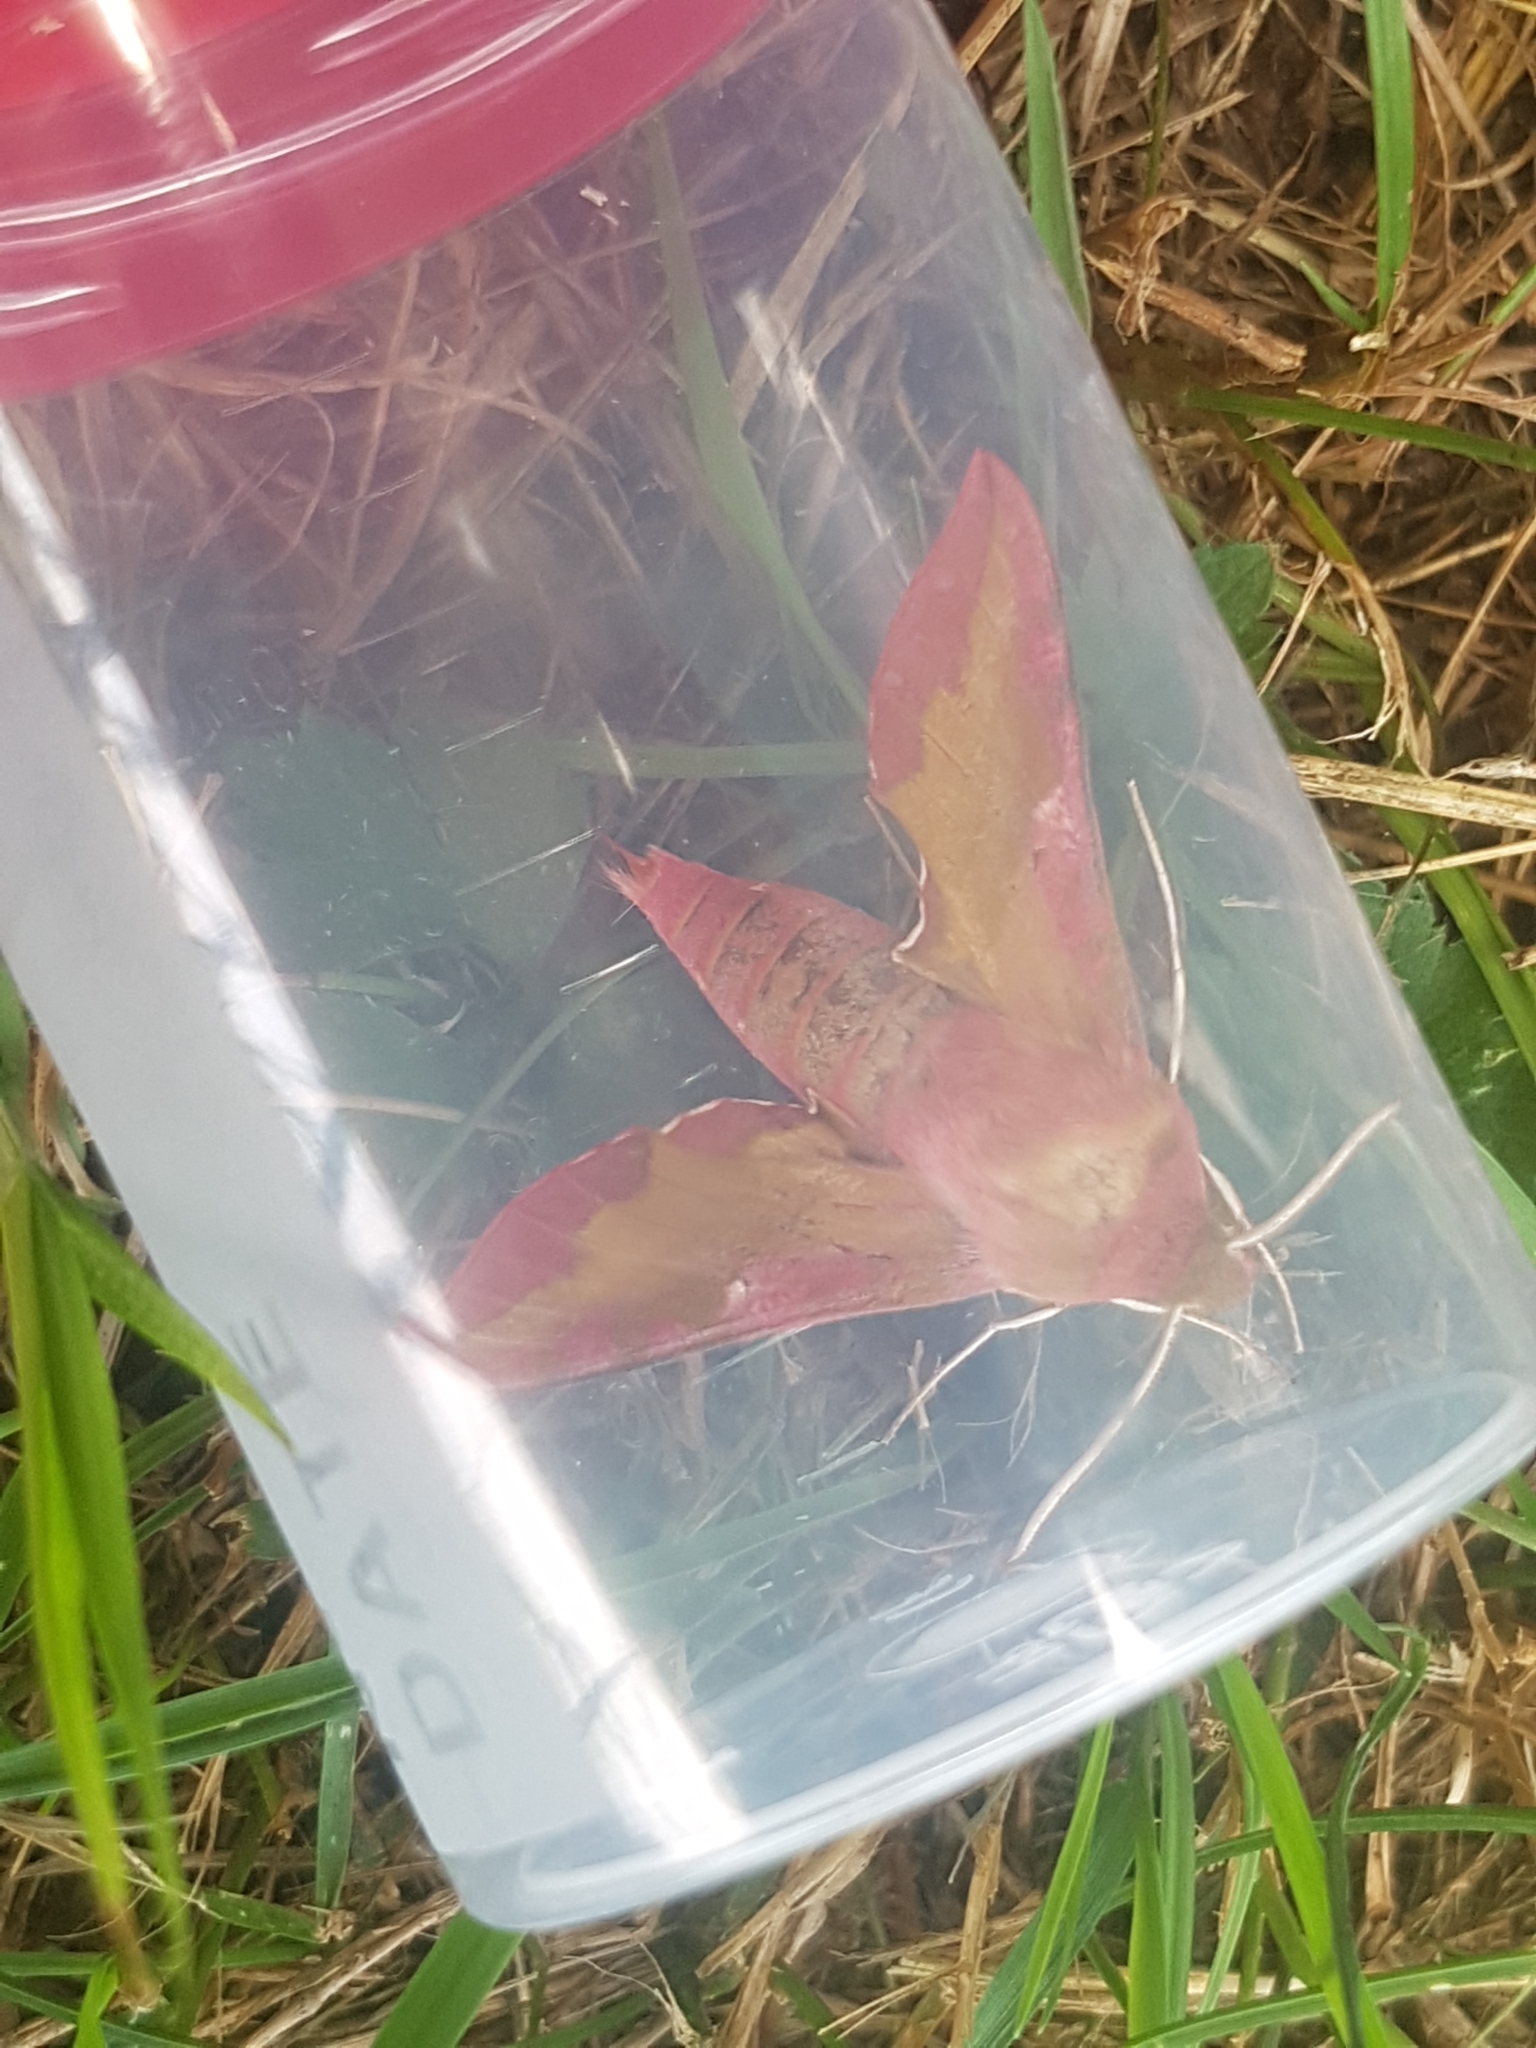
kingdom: Animalia
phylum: Arthropoda
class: Insecta
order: Lepidoptera
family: Sphingidae
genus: Deilephila
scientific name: Deilephila porcellus
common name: Small elephant hawk-moth
